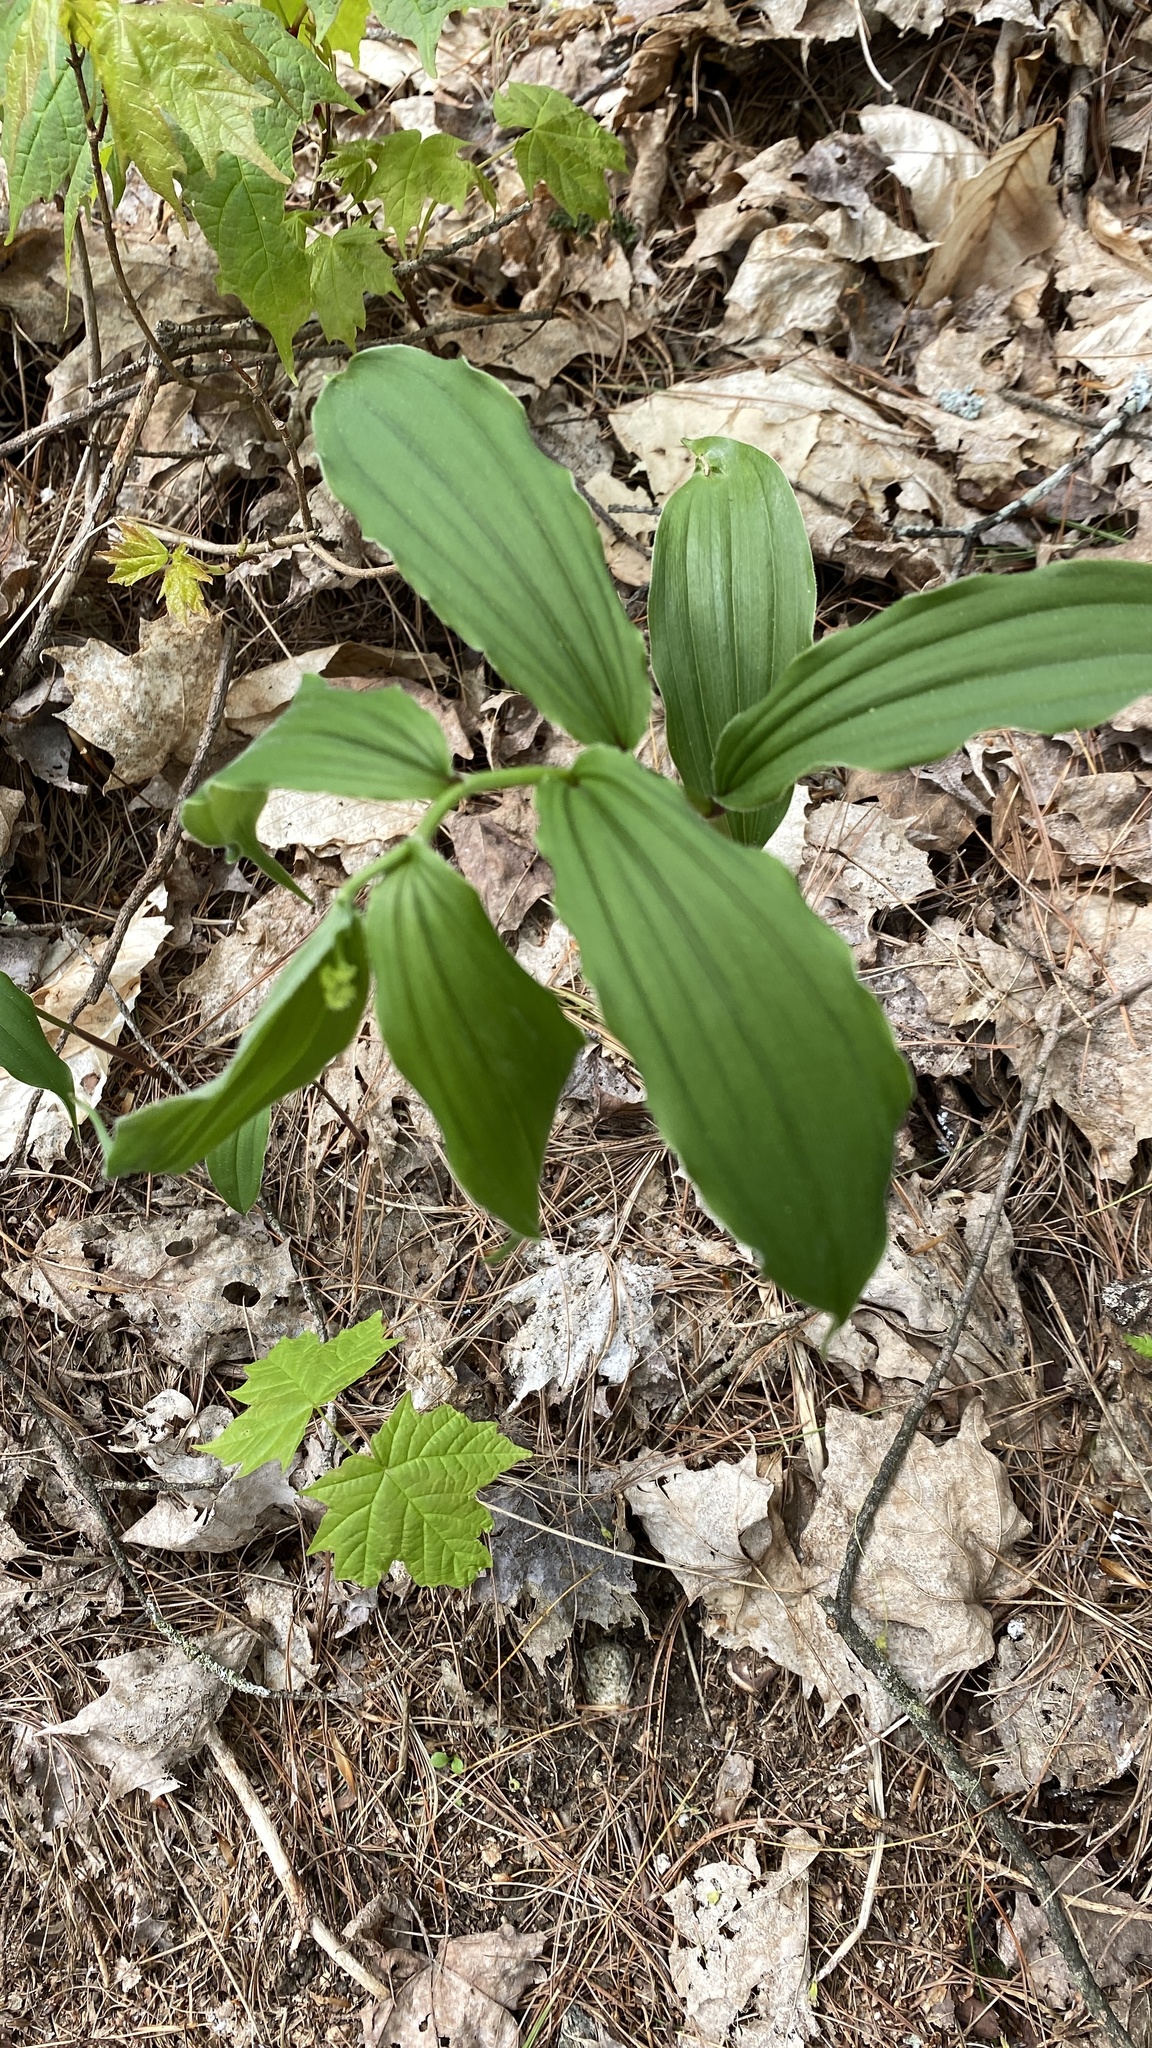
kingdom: Plantae
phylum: Tracheophyta
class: Liliopsida
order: Asparagales
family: Asparagaceae
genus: Maianthemum
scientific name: Maianthemum racemosum
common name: False spikenard
